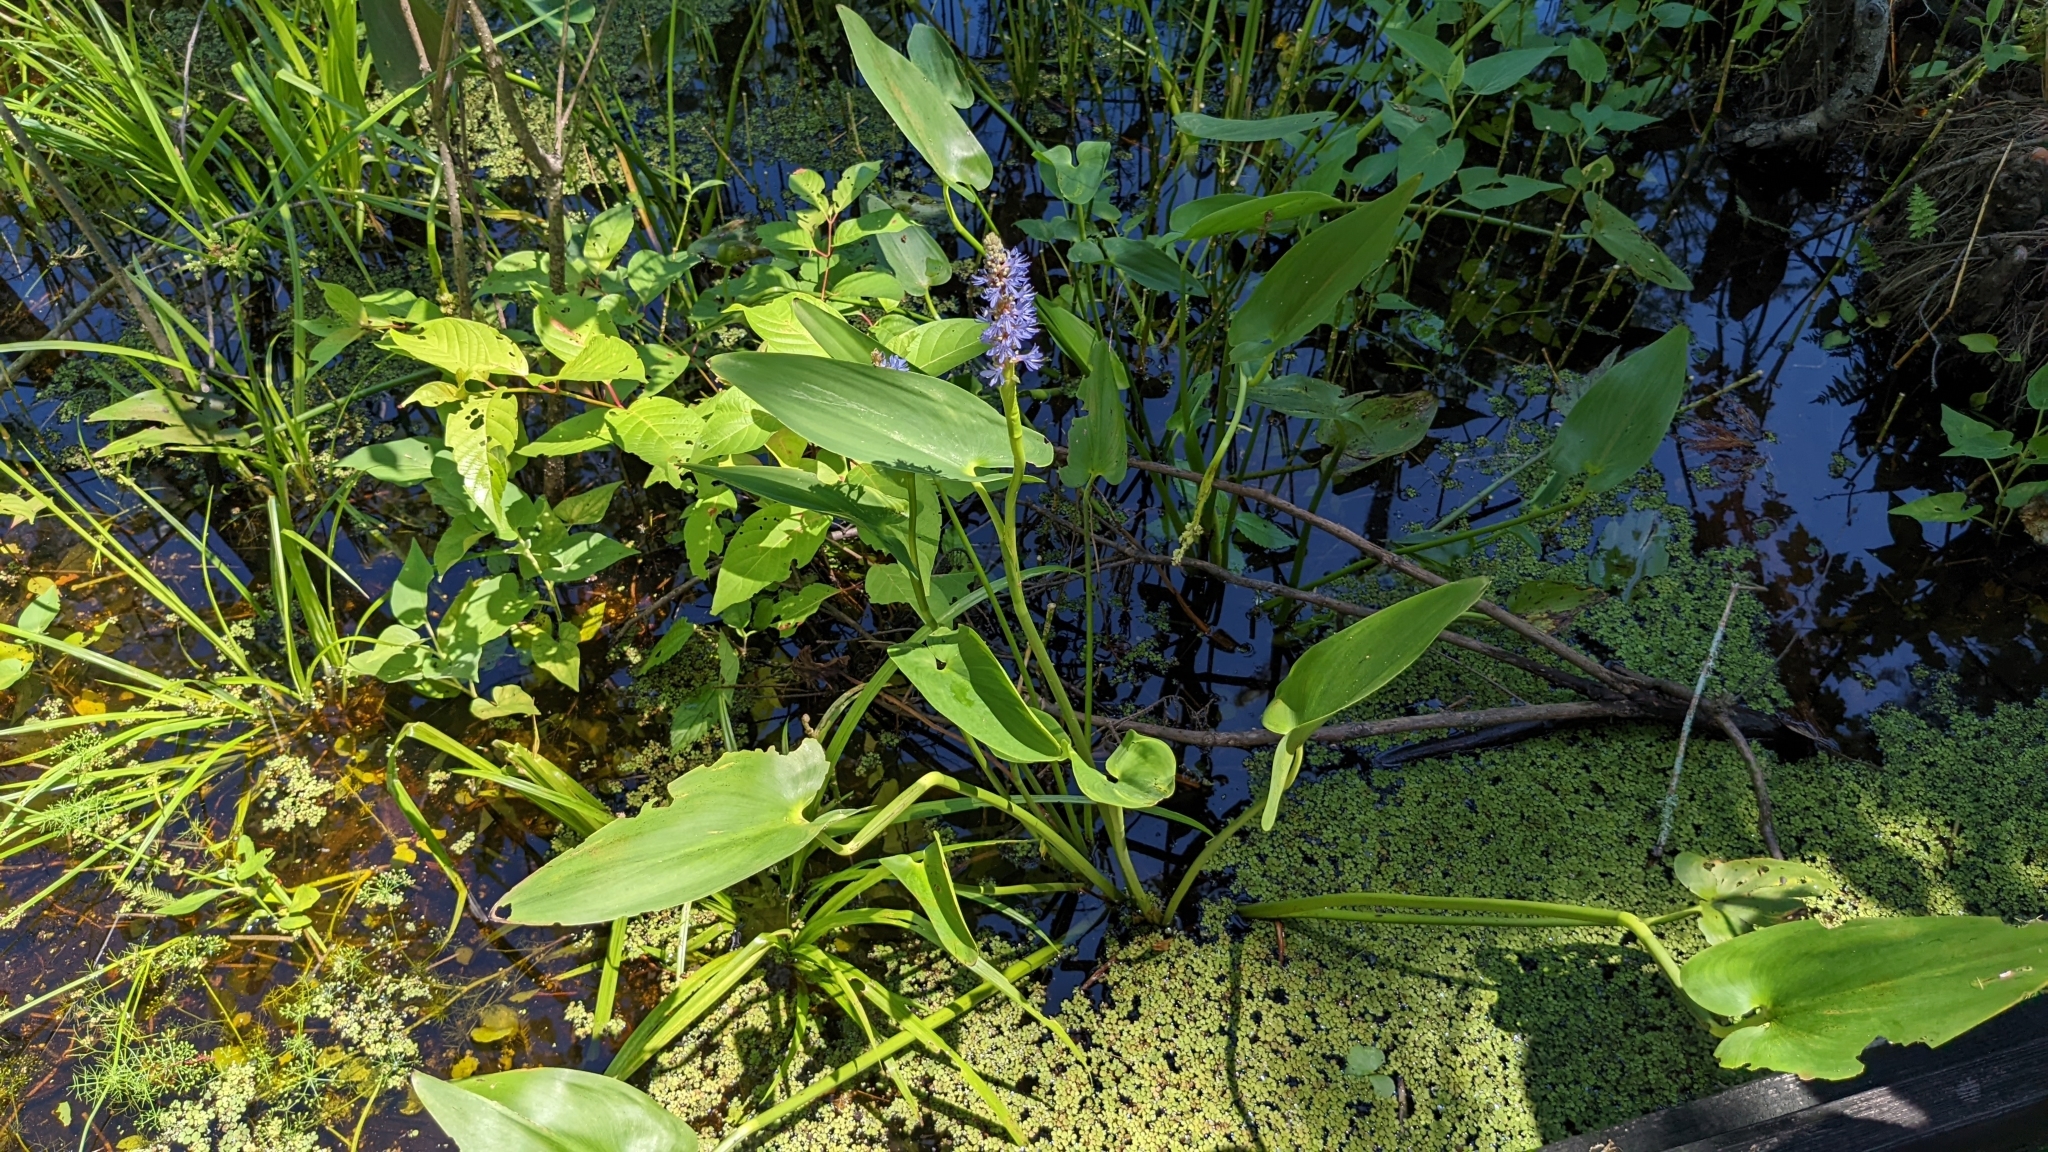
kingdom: Plantae
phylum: Tracheophyta
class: Liliopsida
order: Commelinales
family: Pontederiaceae
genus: Pontederia
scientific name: Pontederia cordata
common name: Pickerelweed
